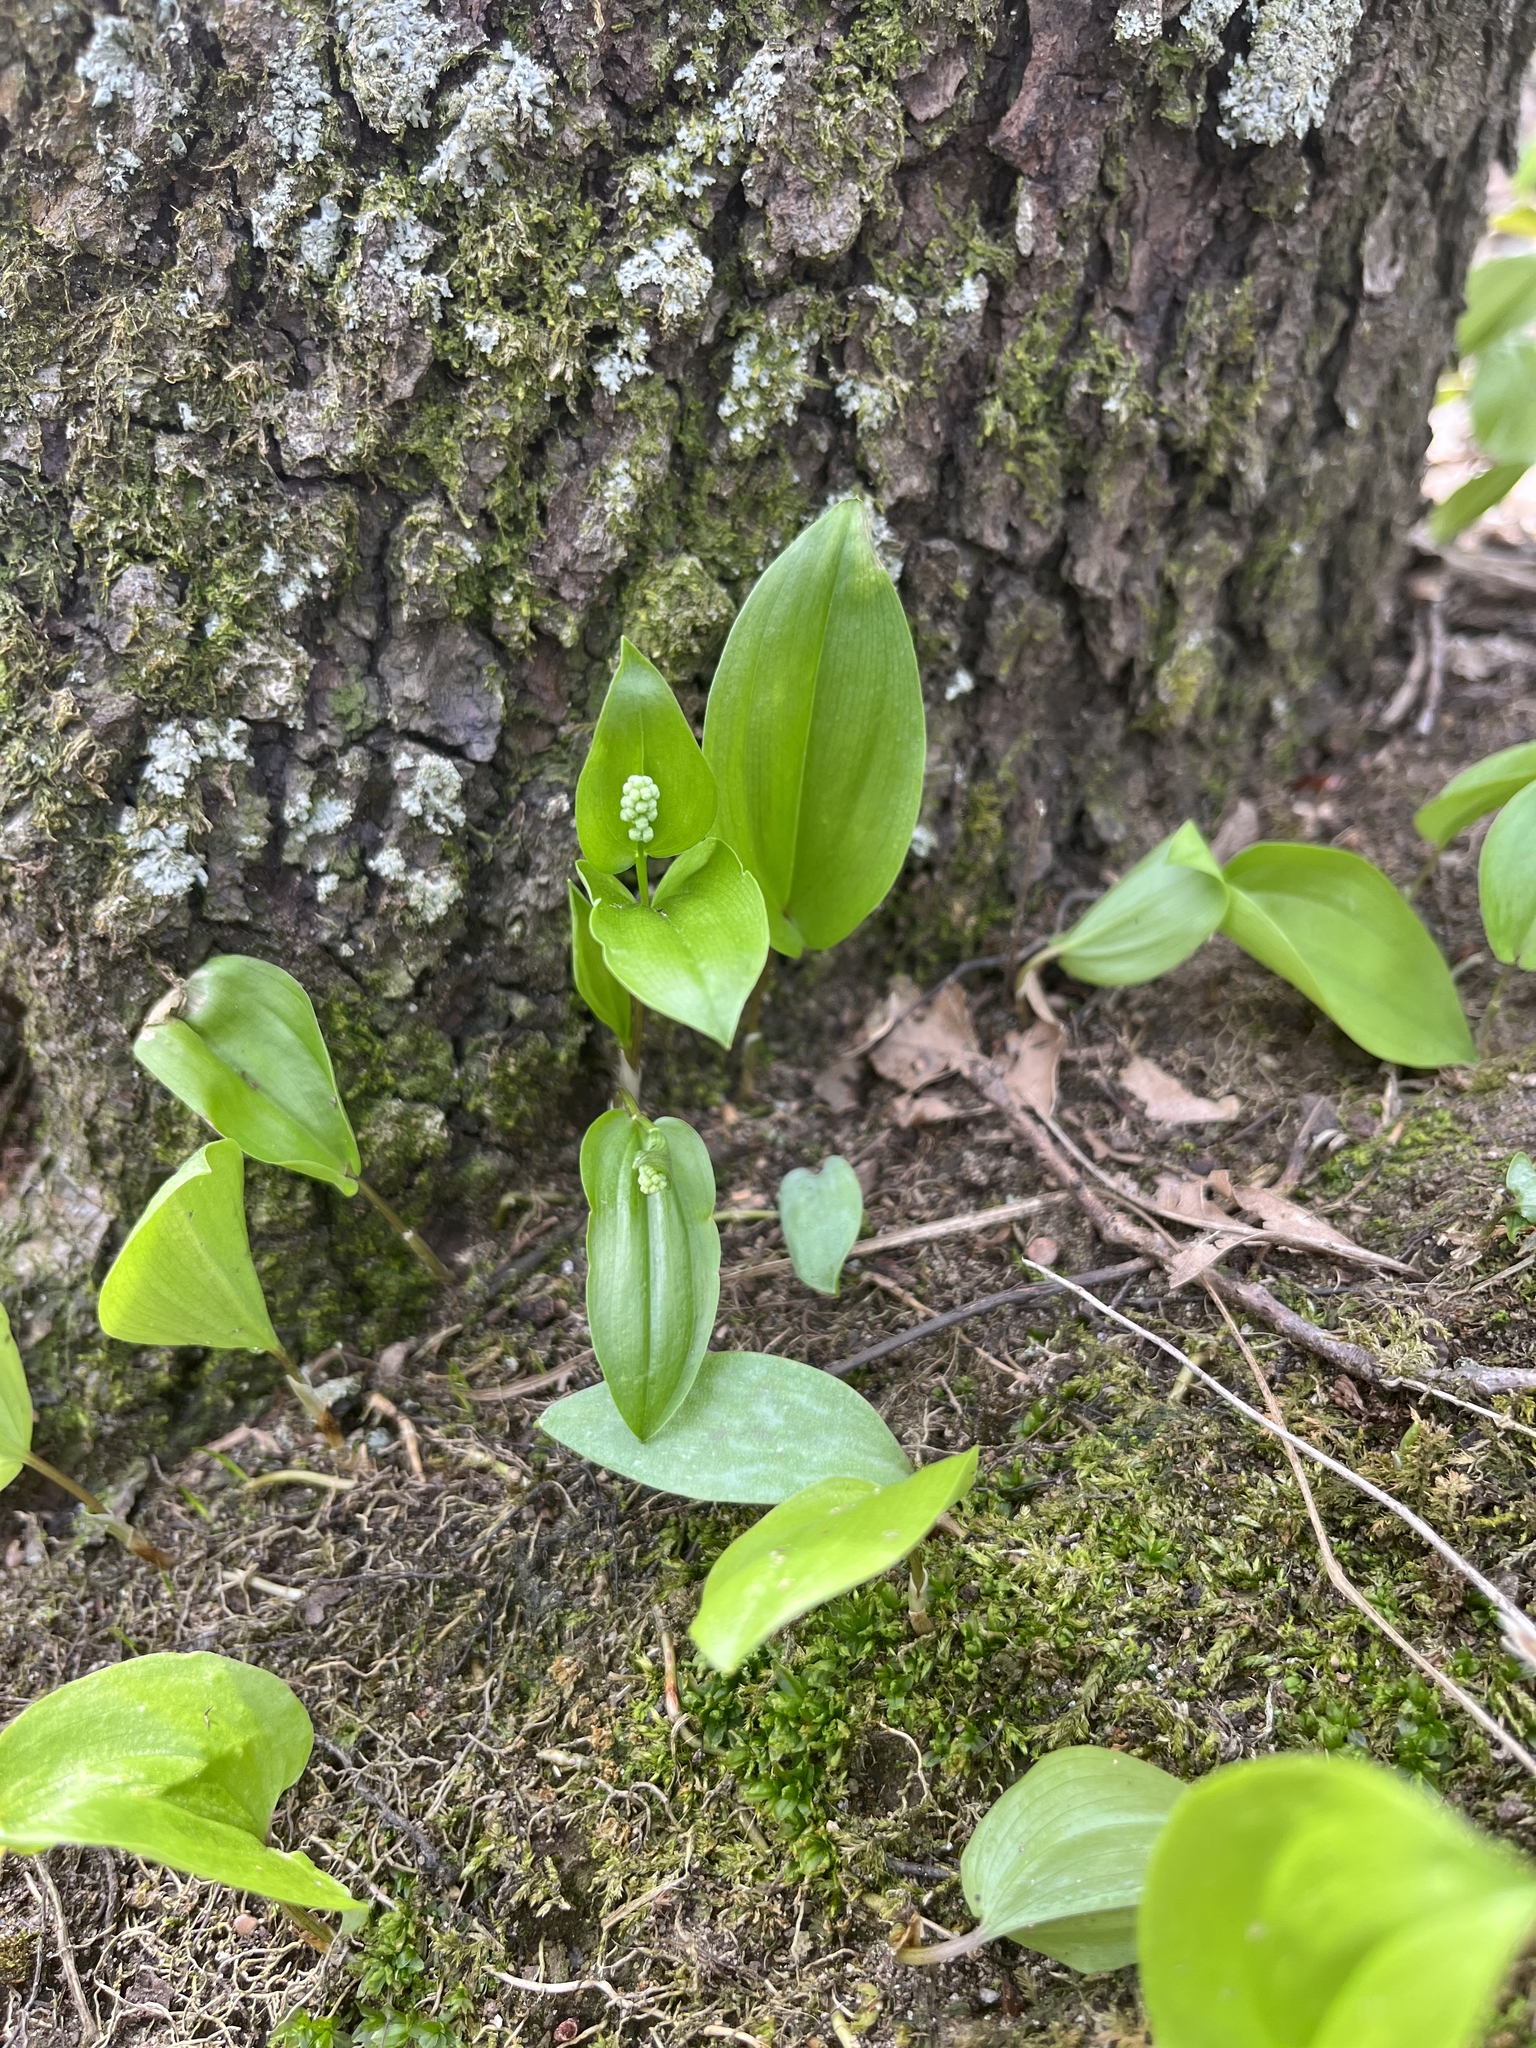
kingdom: Plantae
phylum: Tracheophyta
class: Liliopsida
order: Asparagales
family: Asparagaceae
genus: Maianthemum
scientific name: Maianthemum canadense
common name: False lily-of-the-valley
